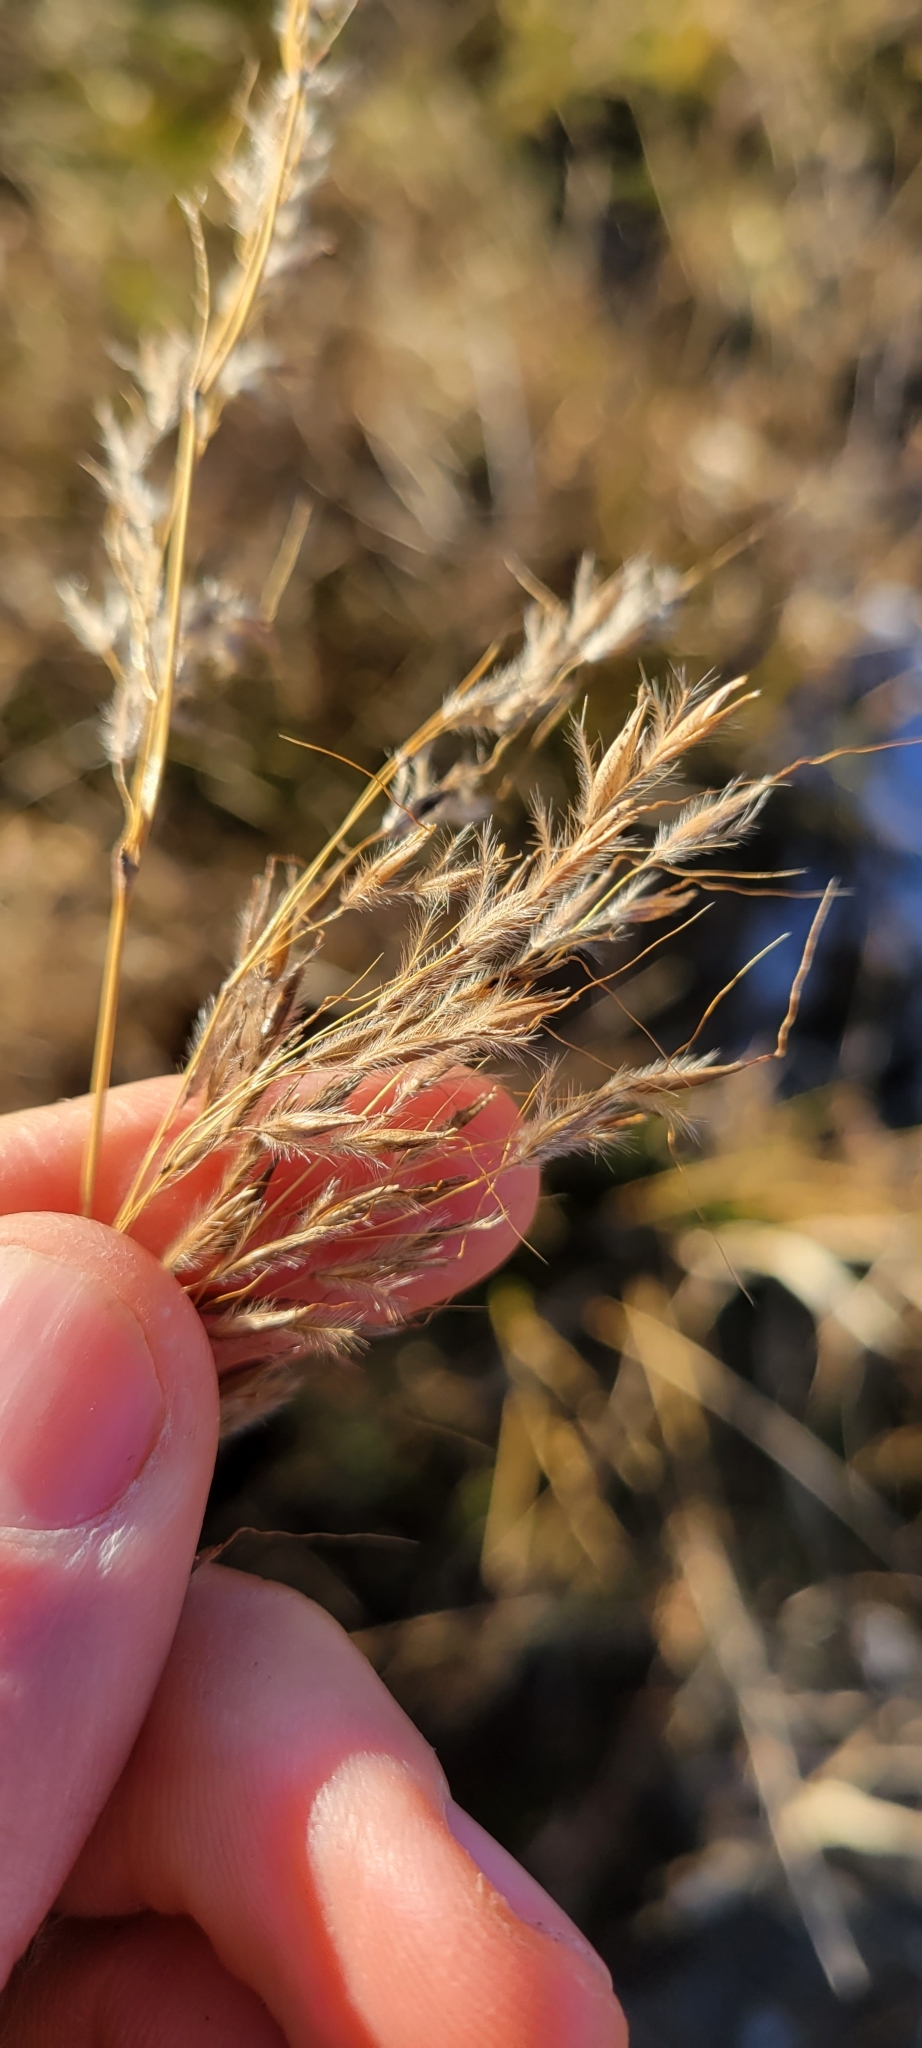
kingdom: Plantae
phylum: Tracheophyta
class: Liliopsida
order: Poales
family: Poaceae
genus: Sorghastrum
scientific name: Sorghastrum nutans
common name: Indian grass
